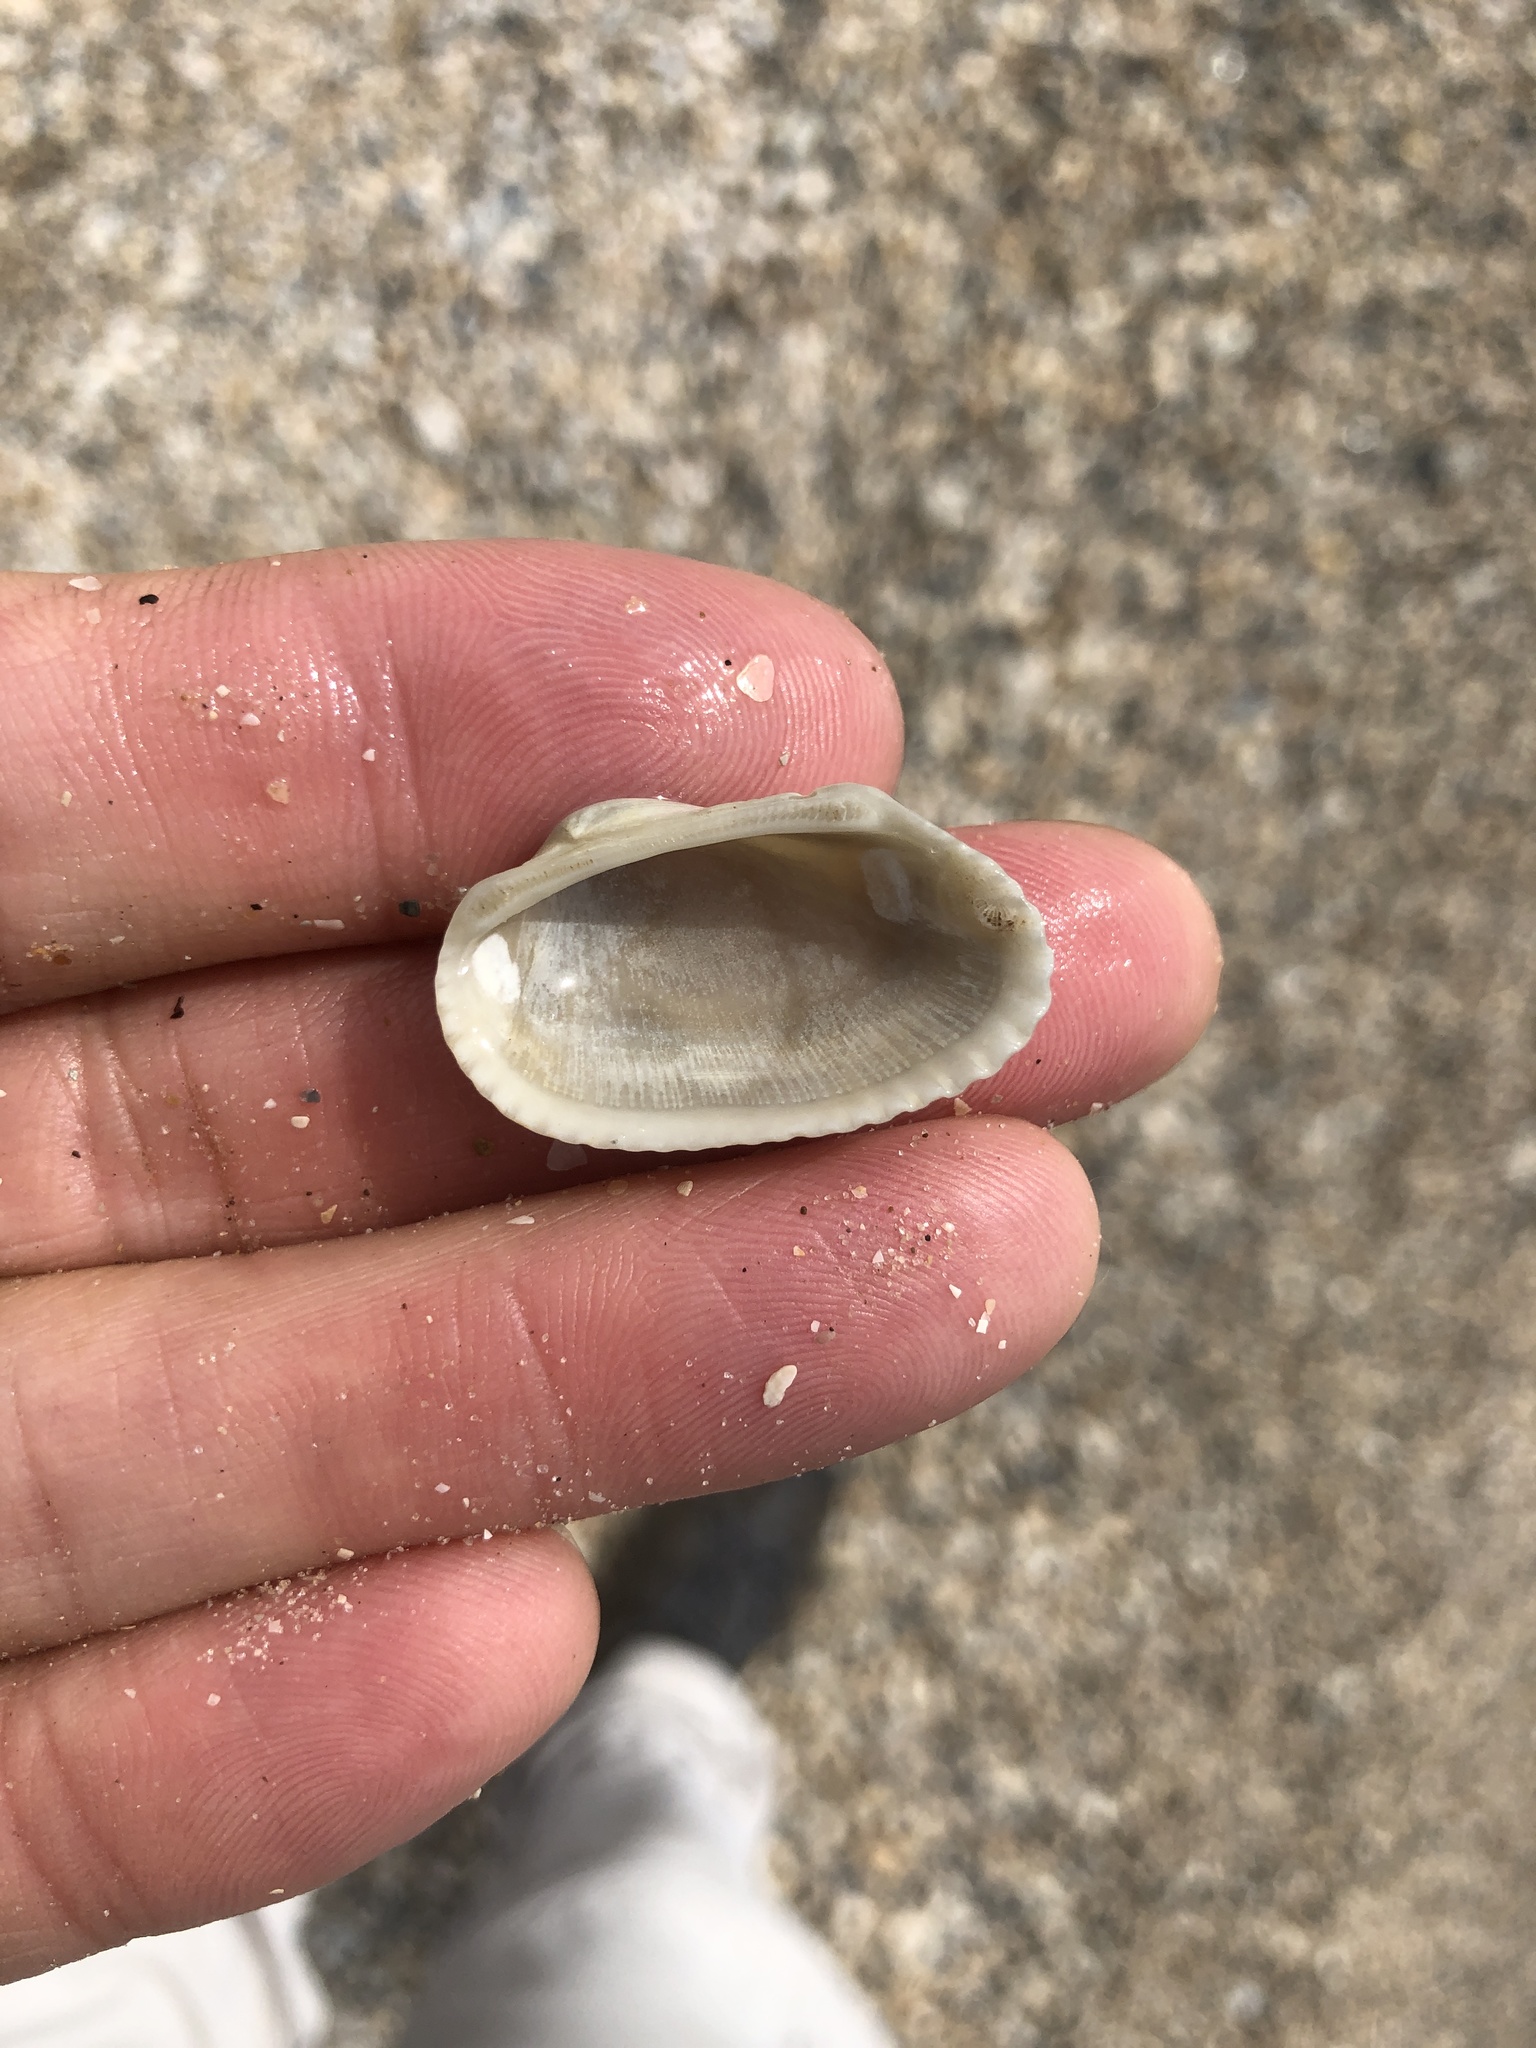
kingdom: Animalia
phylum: Mollusca
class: Bivalvia
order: Arcida
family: Arcidae
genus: Anadara
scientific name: Anadara transversa
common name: Transverse ark
